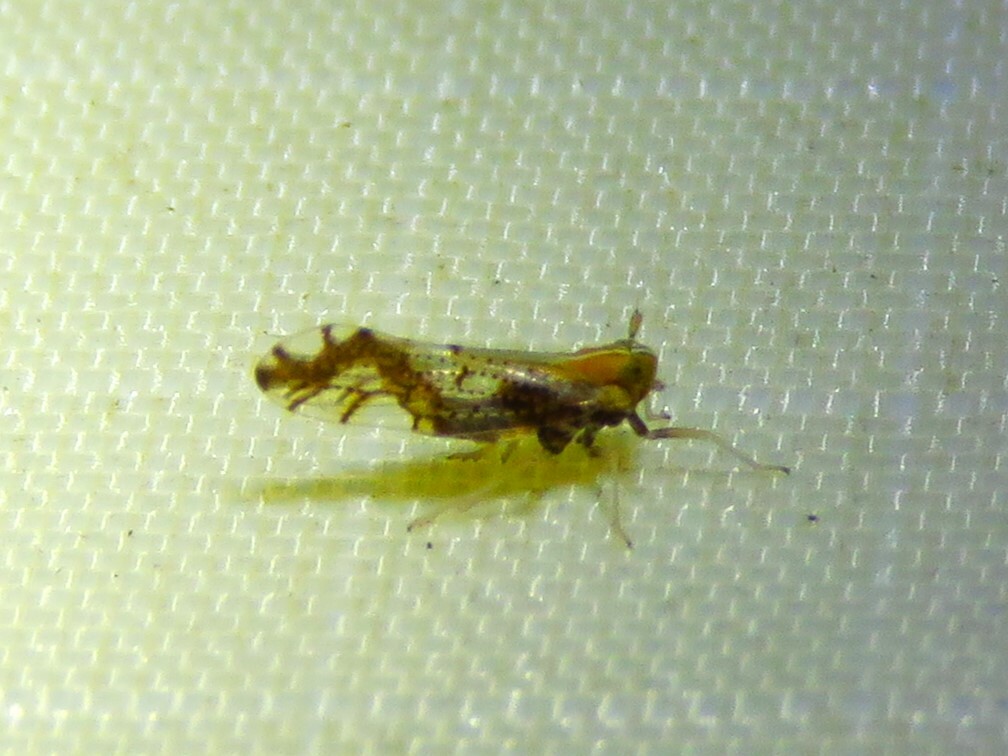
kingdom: Animalia
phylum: Arthropoda
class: Insecta
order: Hemiptera
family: Delphacidae
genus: Liburniella
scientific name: Liburniella ornata
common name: Ornate planthopper
